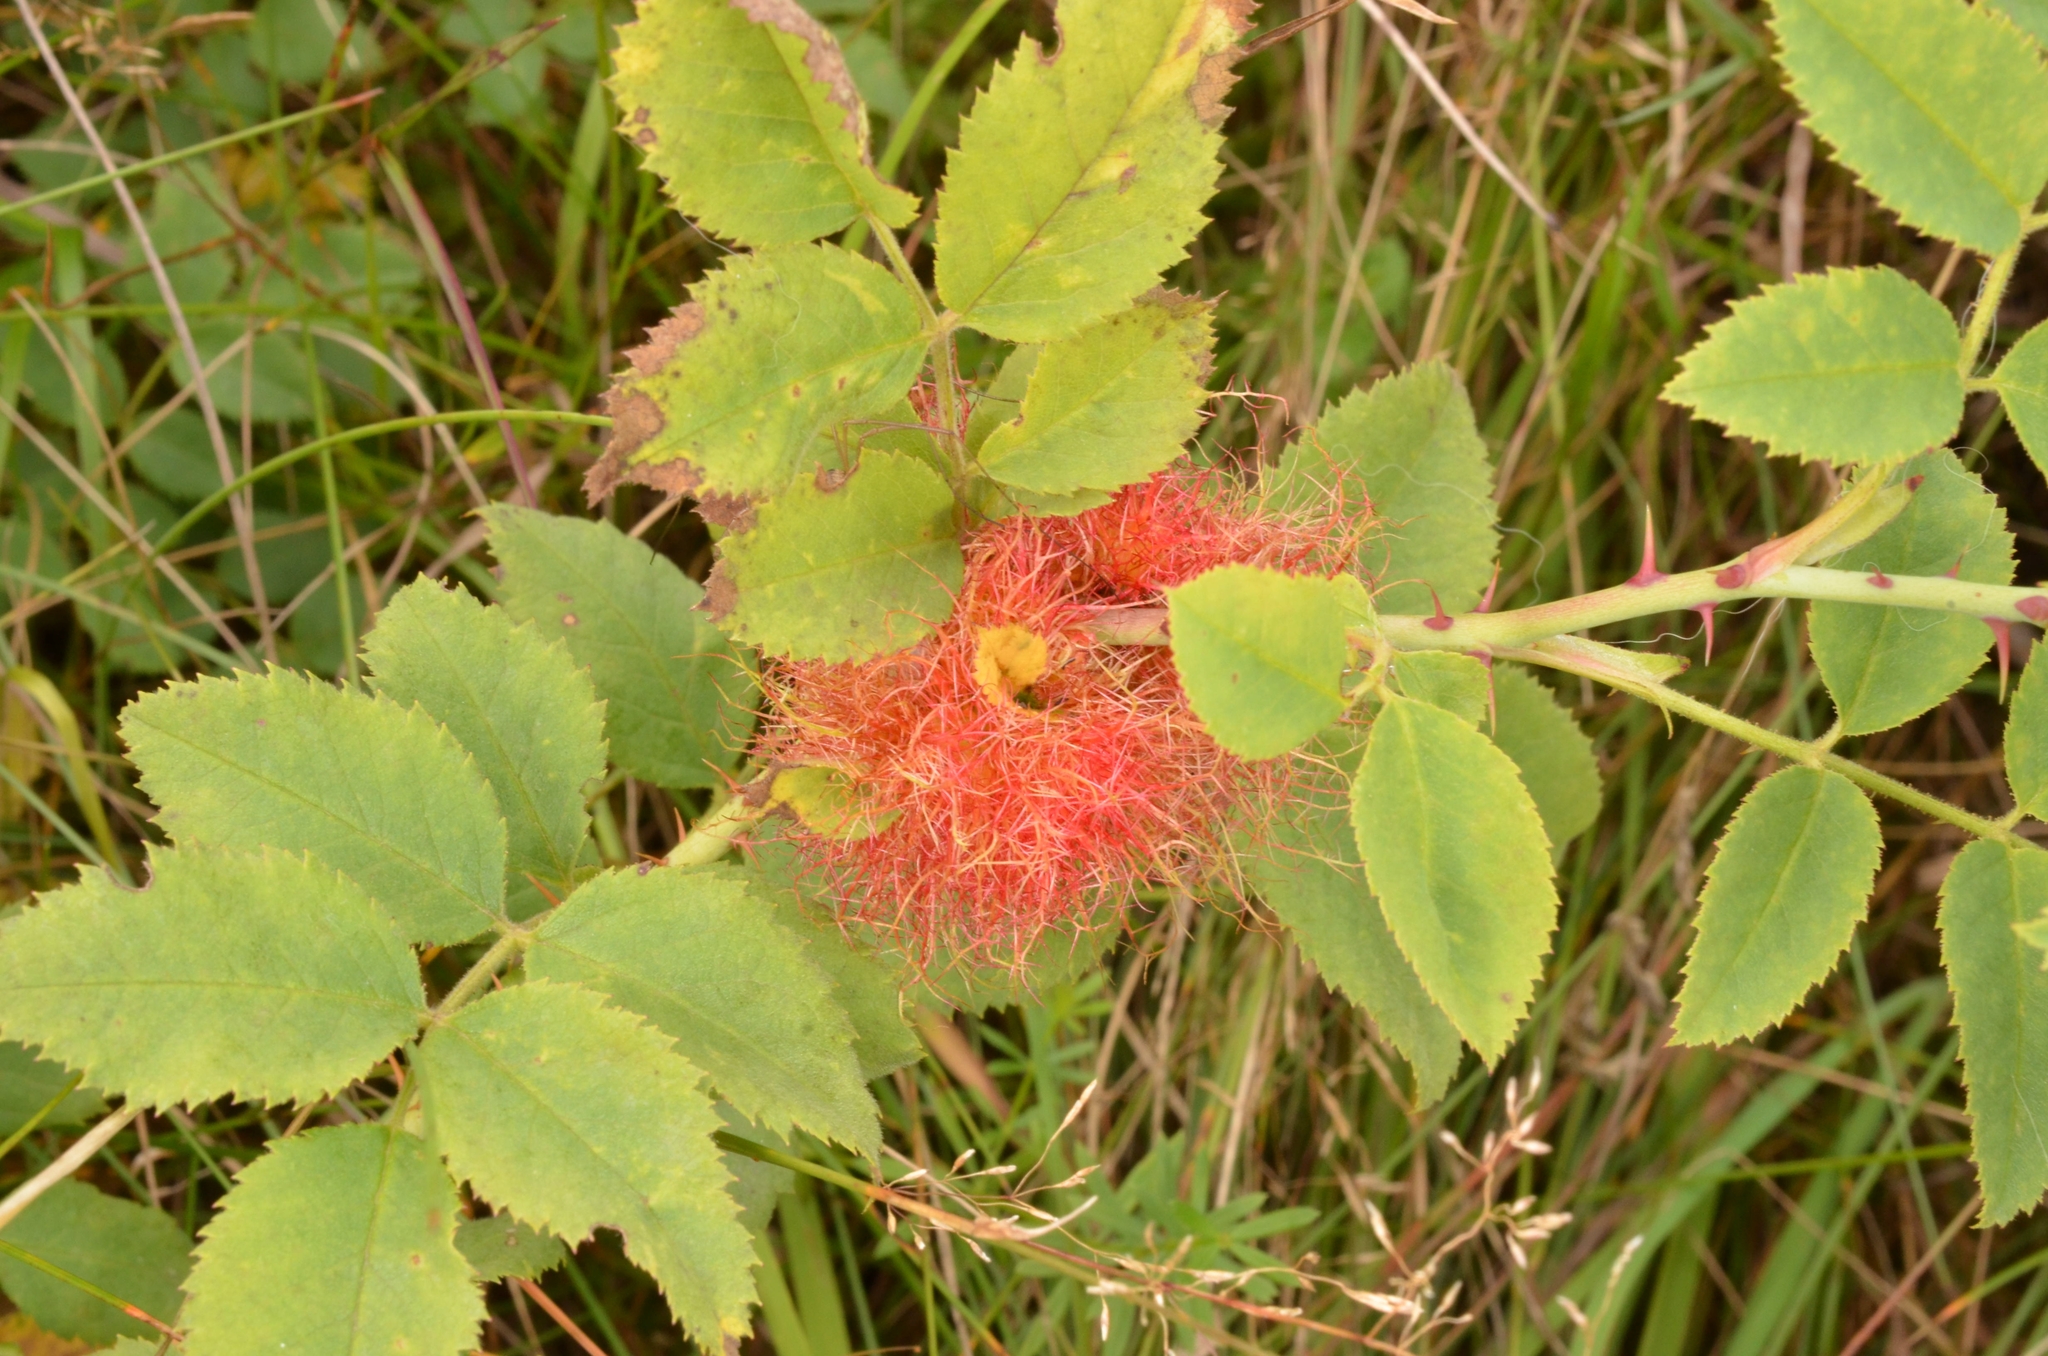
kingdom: Animalia
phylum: Arthropoda
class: Insecta
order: Hymenoptera
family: Cynipidae
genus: Diplolepis
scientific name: Diplolepis rosae
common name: Bedeguar gall
